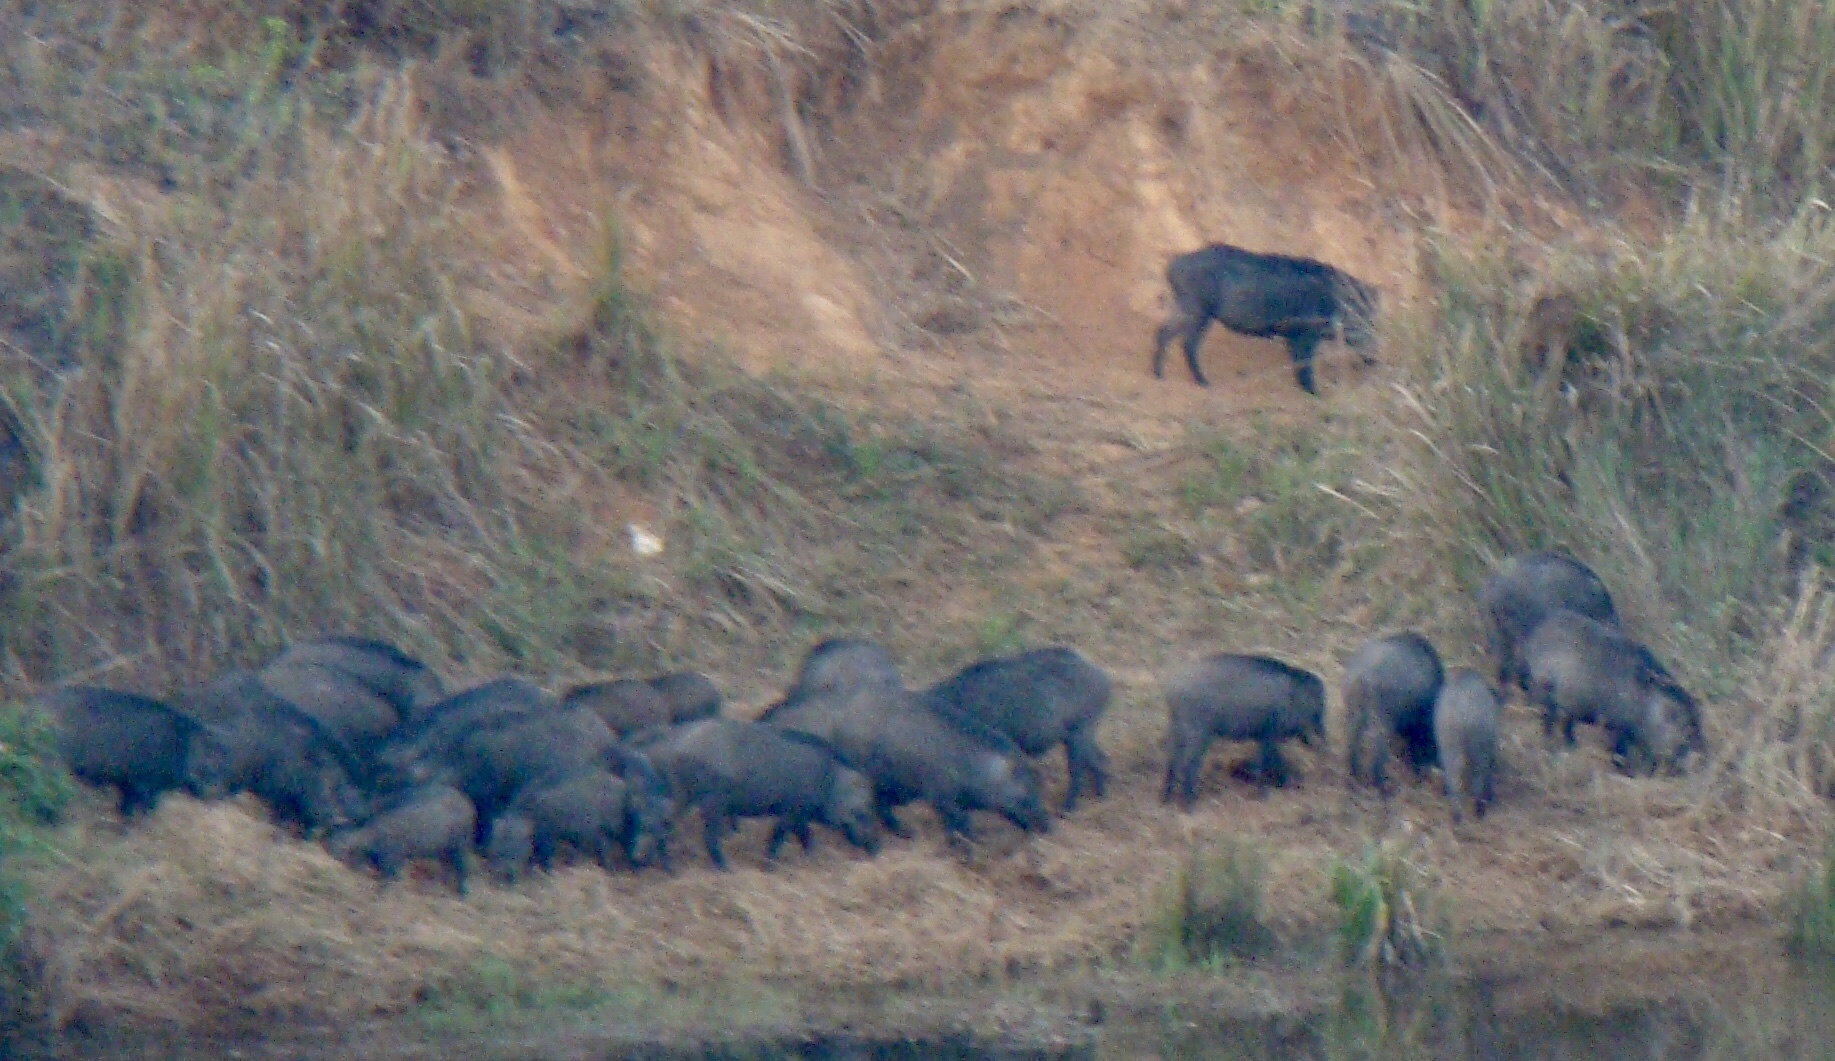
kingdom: Animalia
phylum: Chordata
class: Mammalia
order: Artiodactyla
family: Suidae
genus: Sus
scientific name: Sus scrofa
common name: Wild boar
